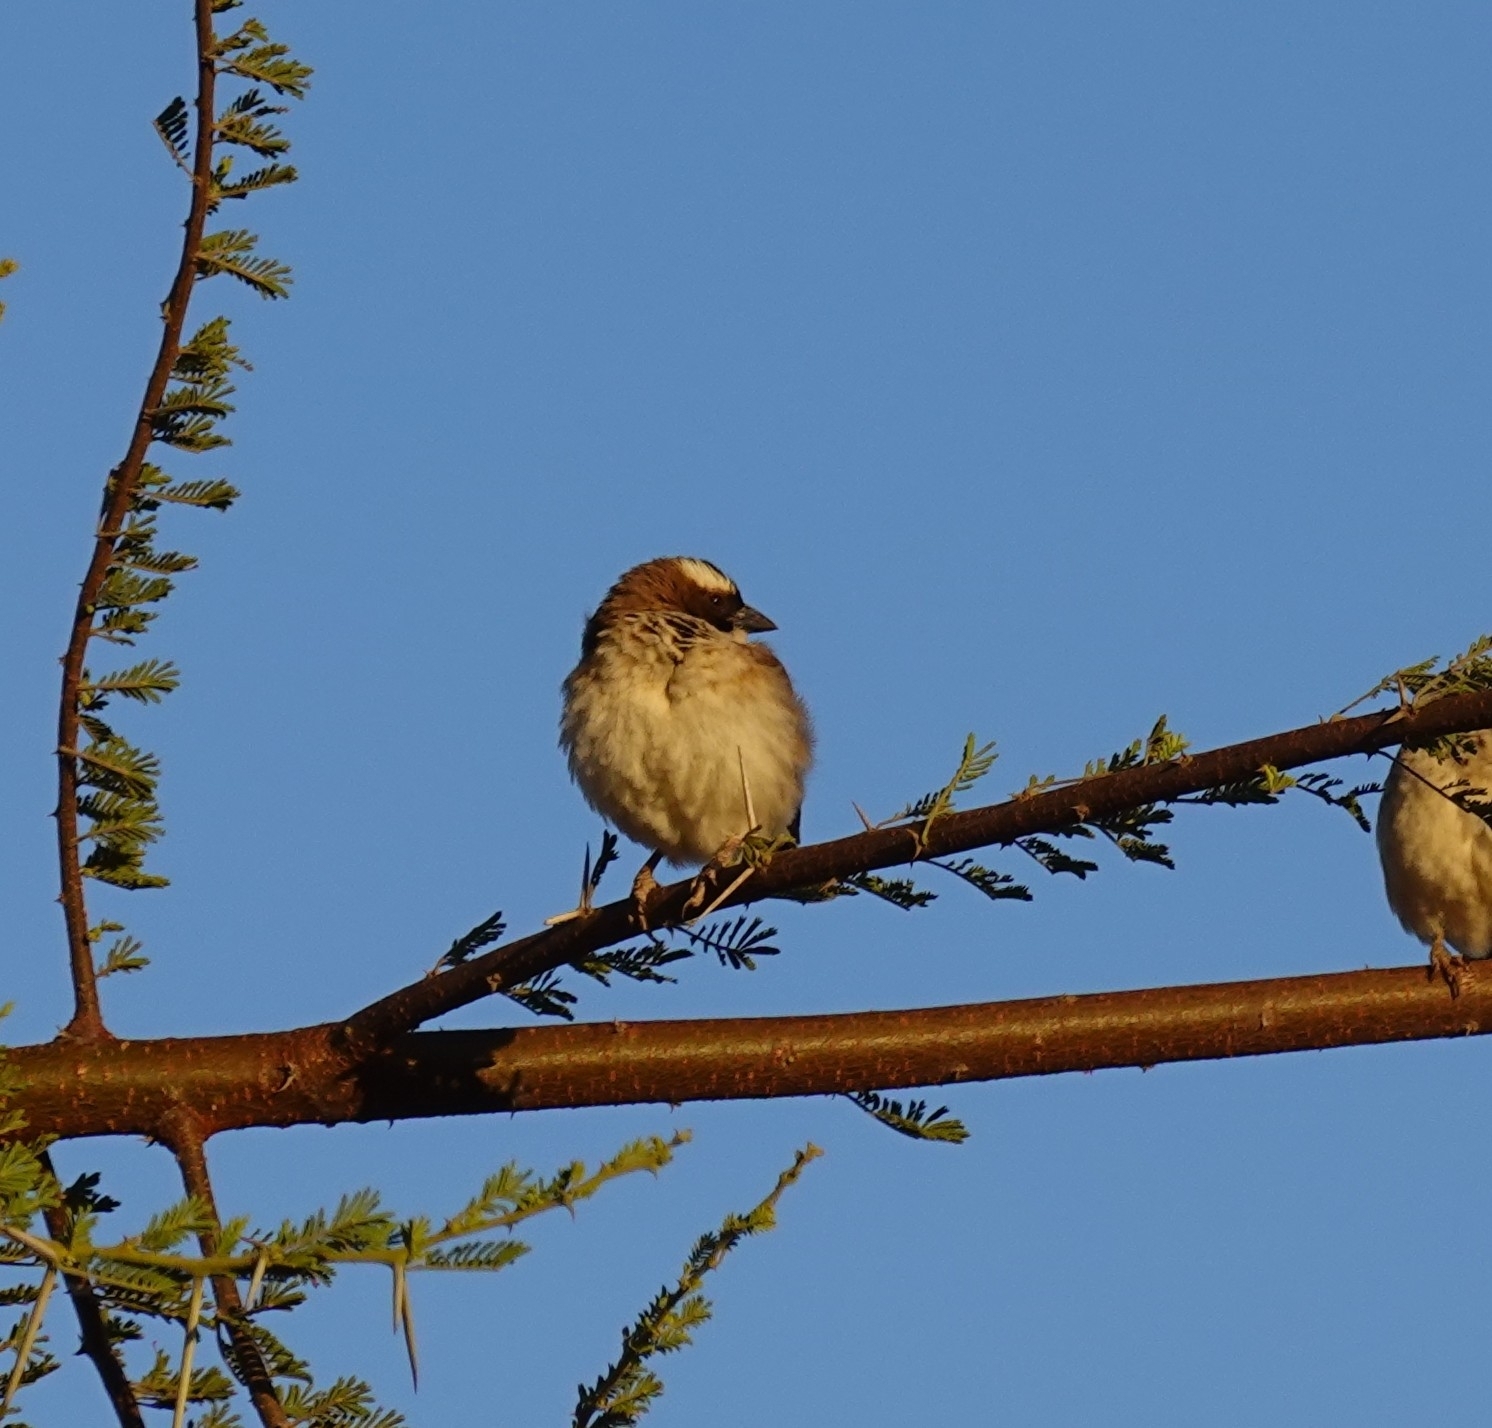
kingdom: Animalia
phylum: Chordata
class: Aves
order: Passeriformes
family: Passeridae
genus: Plocepasser
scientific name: Plocepasser mahali
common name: White-browed sparrow-weaver
